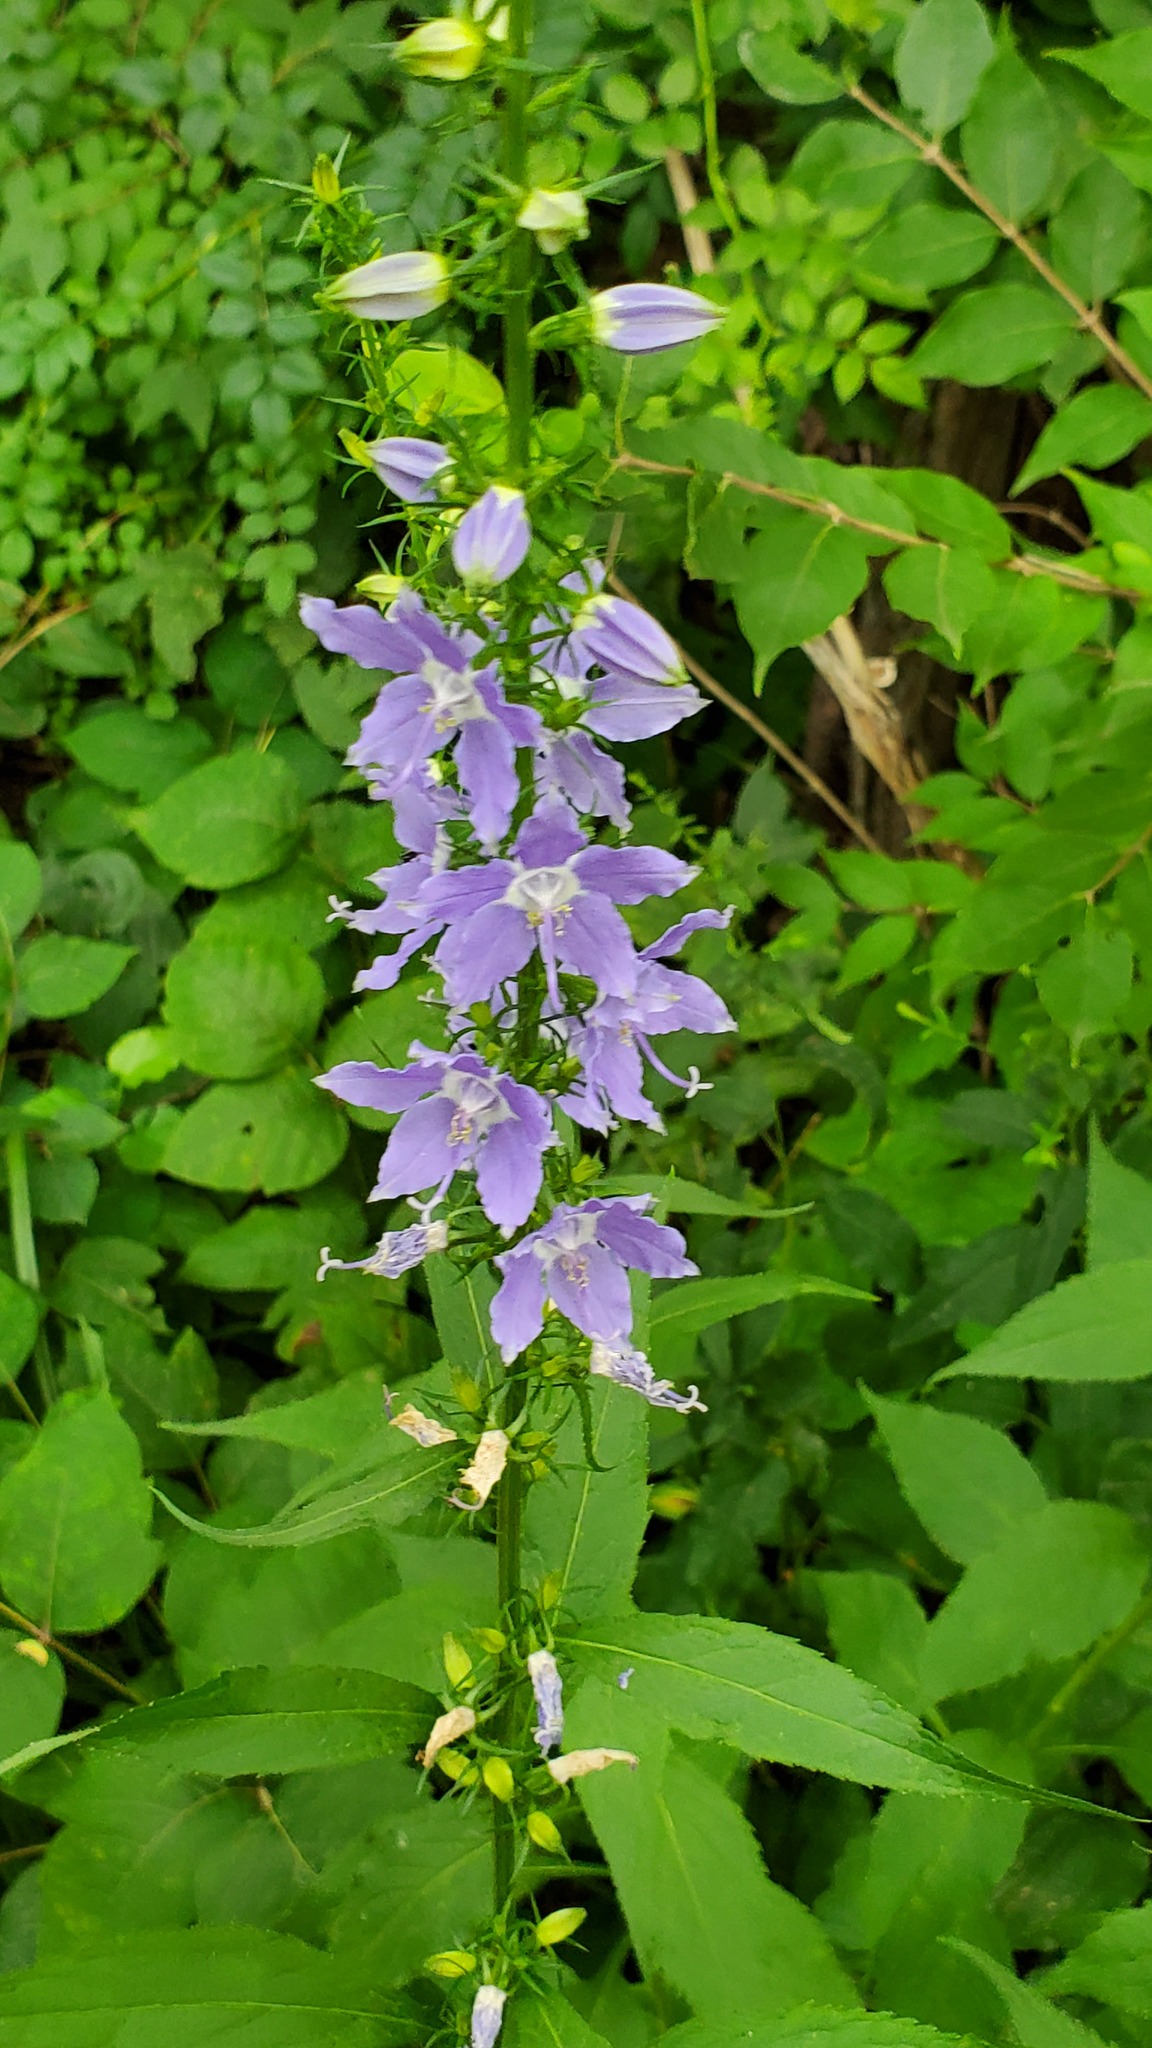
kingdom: Plantae
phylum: Tracheophyta
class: Magnoliopsida
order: Asterales
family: Campanulaceae
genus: Campanulastrum
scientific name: Campanulastrum americanum
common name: American bellflower
